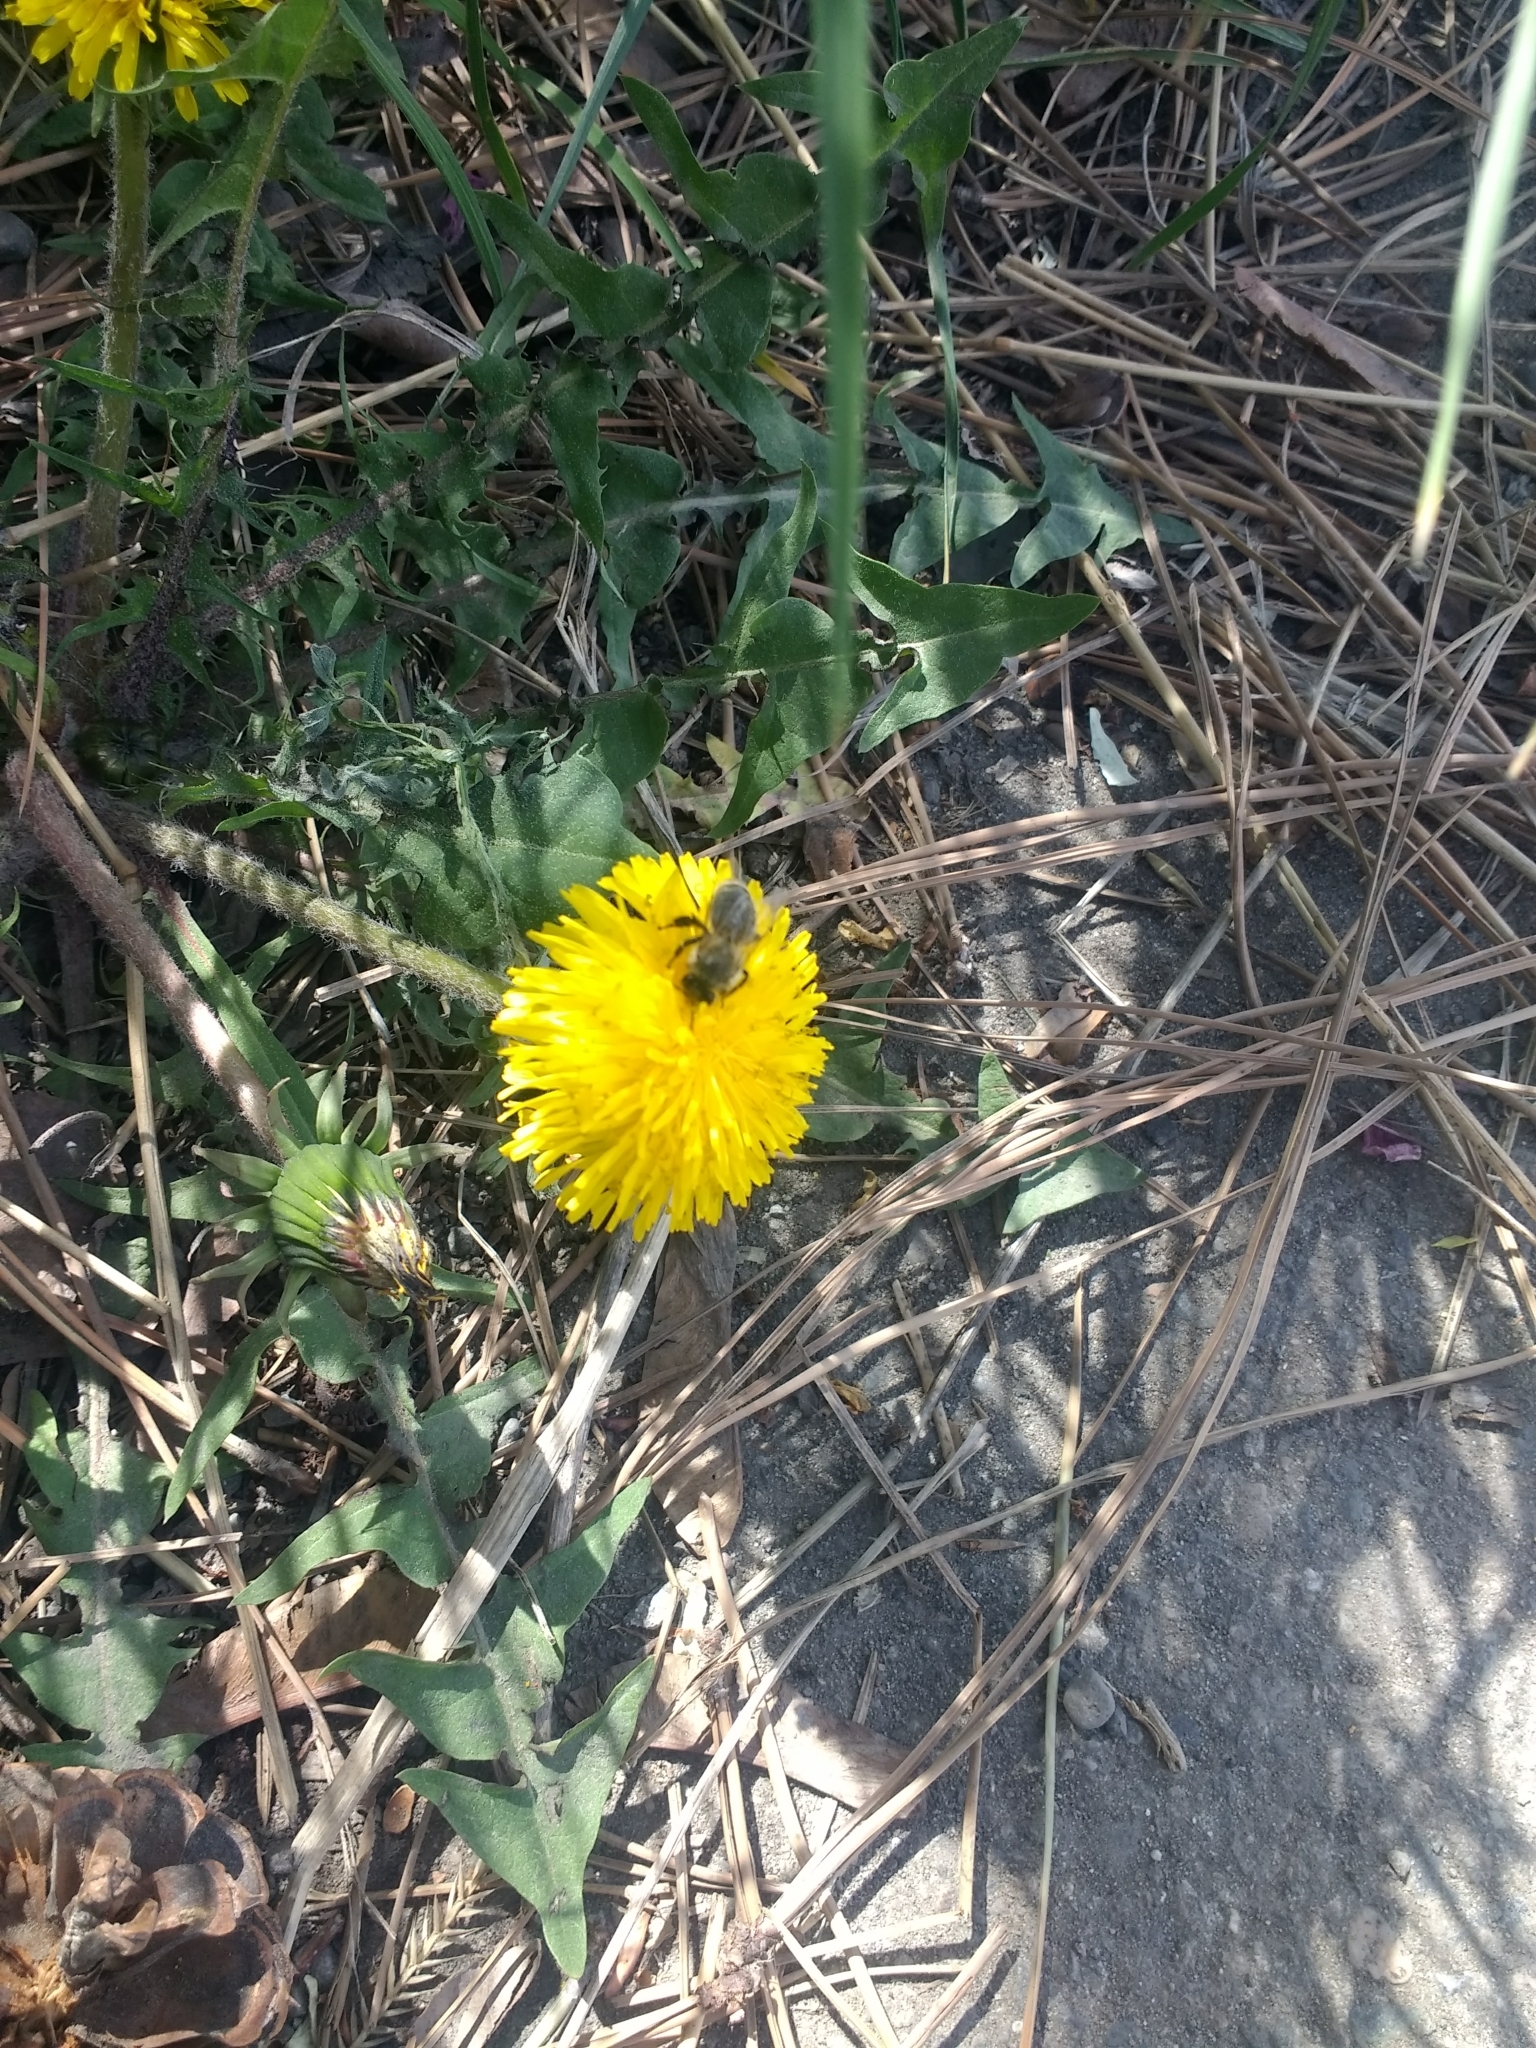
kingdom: Animalia
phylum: Arthropoda
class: Insecta
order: Hymenoptera
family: Apidae
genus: Apis
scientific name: Apis mellifera
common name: Honey bee
